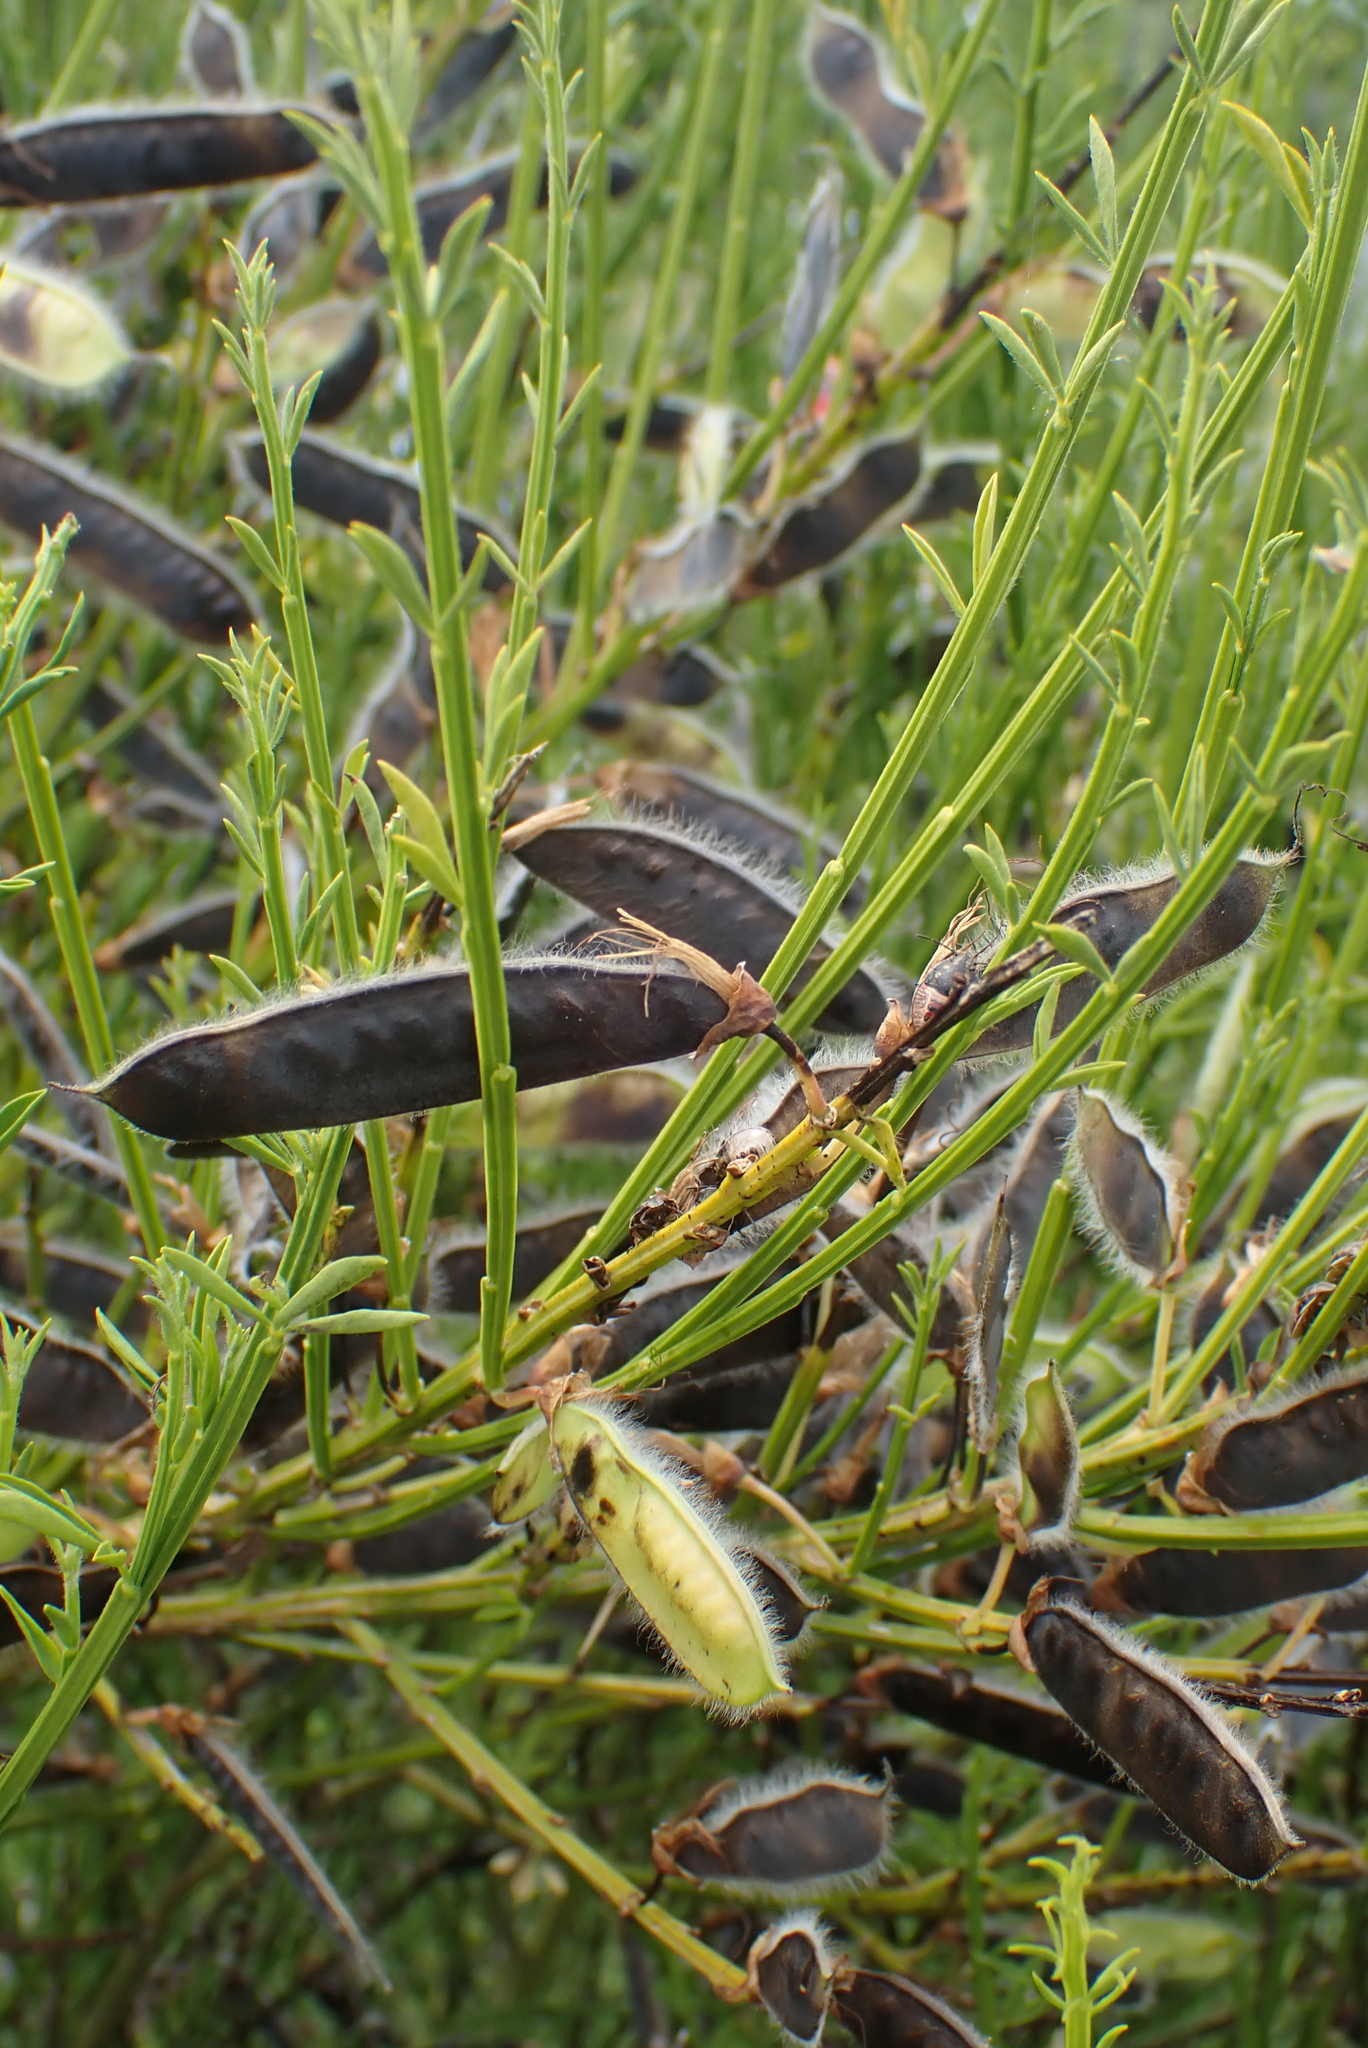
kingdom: Plantae
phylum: Tracheophyta
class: Magnoliopsida
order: Fabales
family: Fabaceae
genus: Cytisus
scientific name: Cytisus scoparius
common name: Scotch broom
